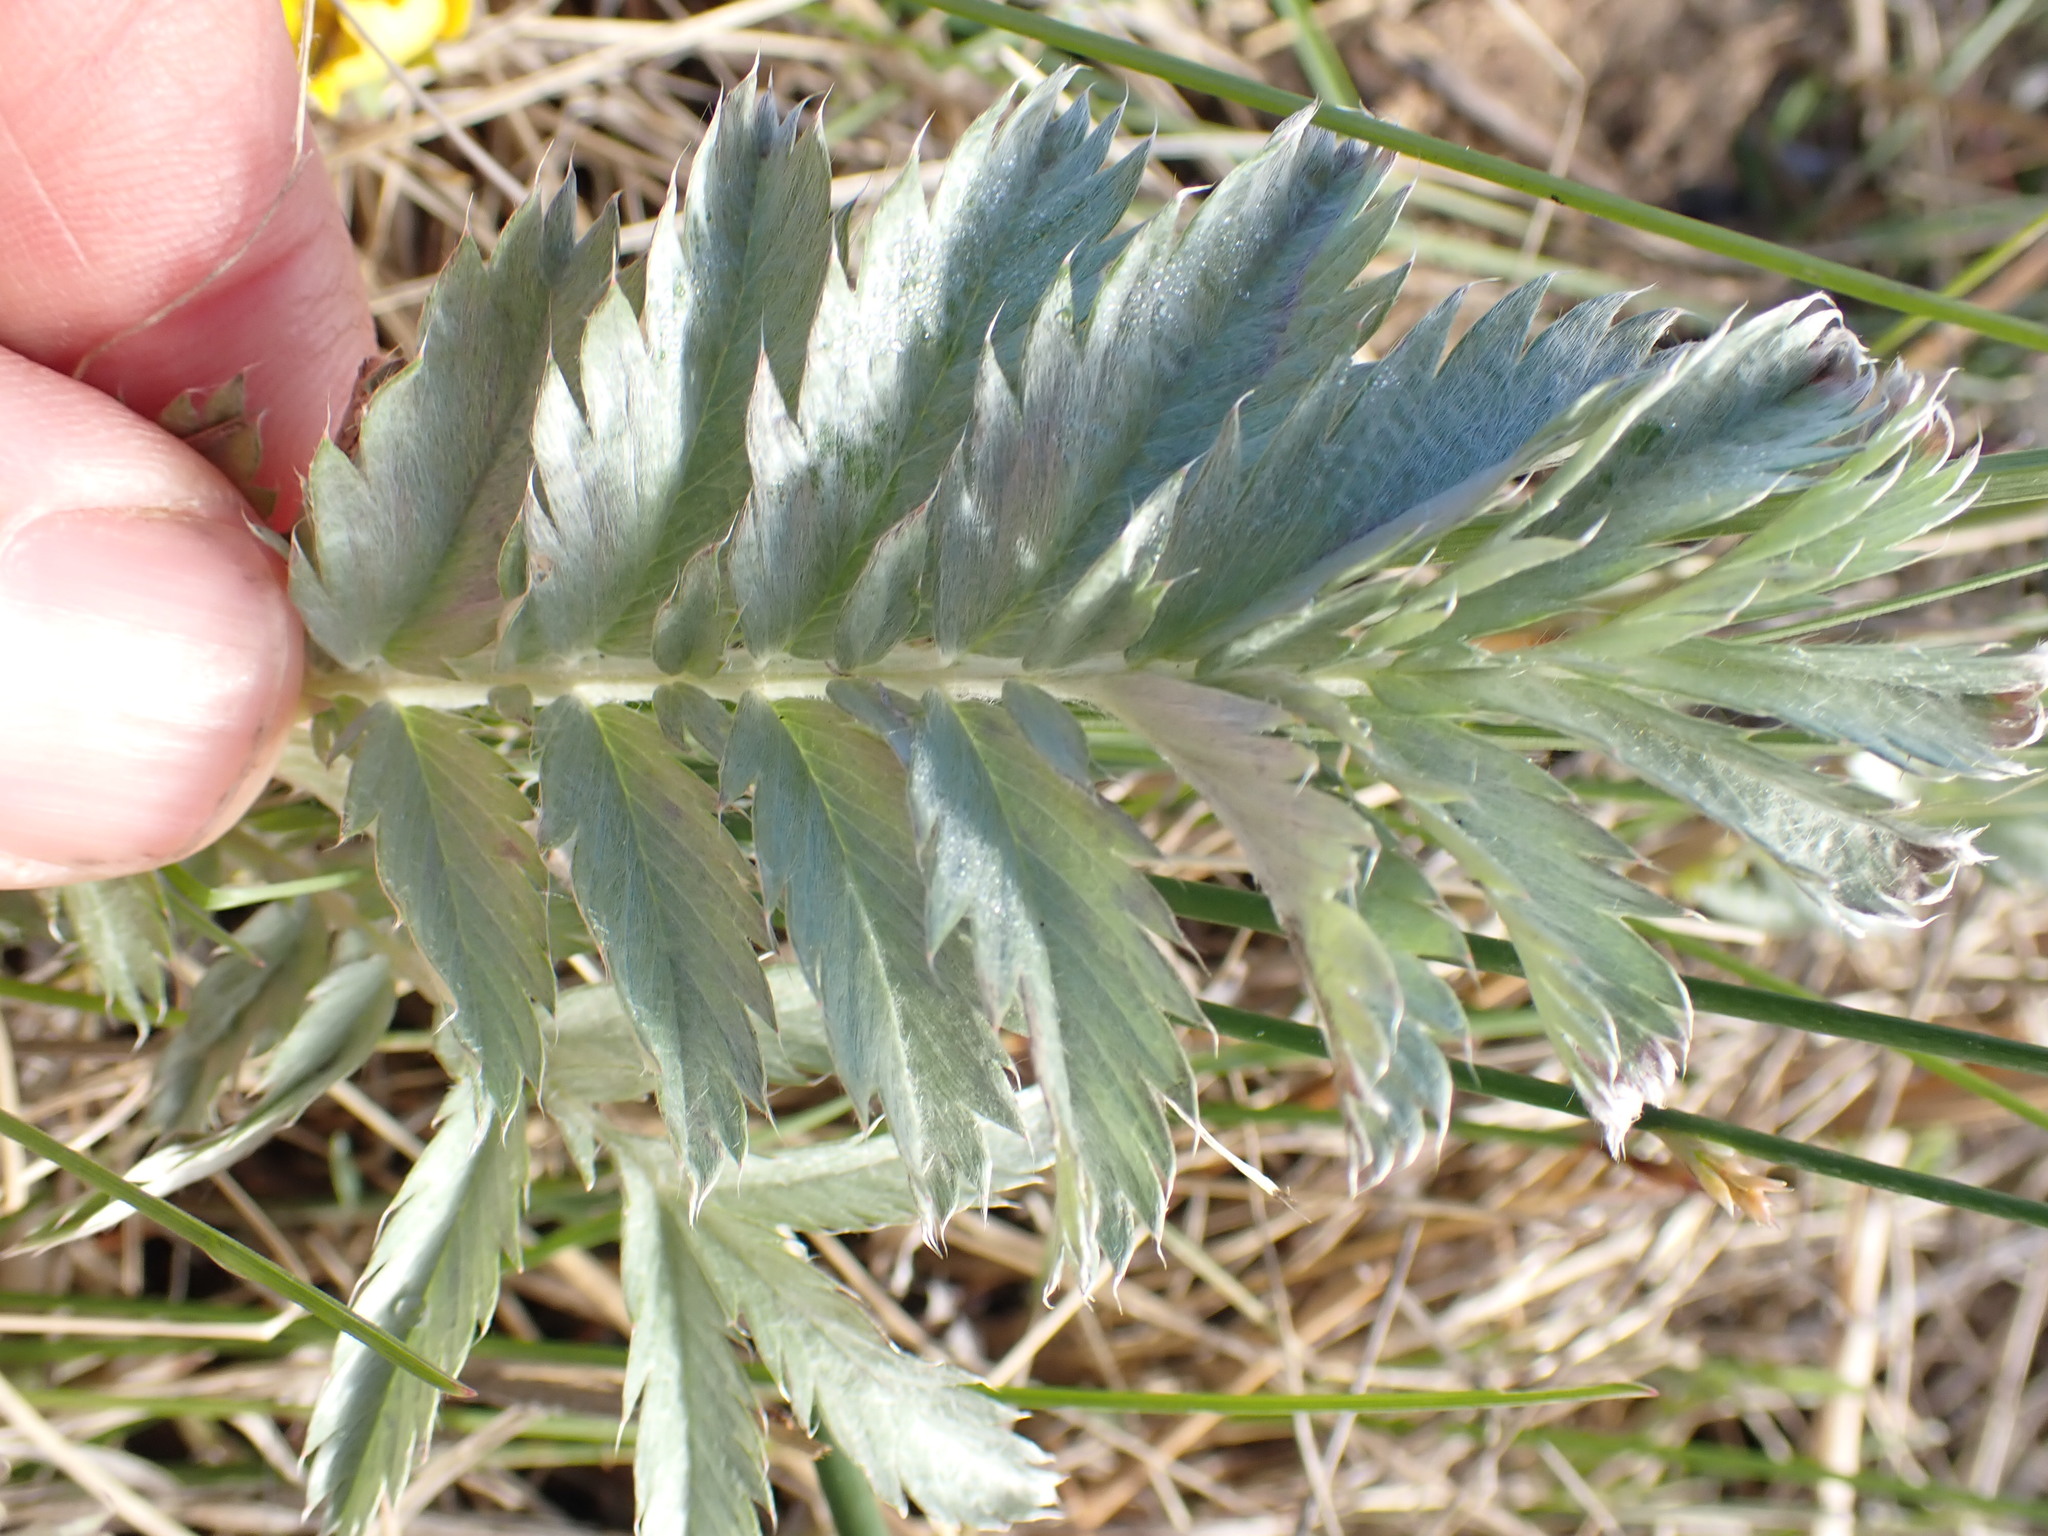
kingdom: Plantae
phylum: Tracheophyta
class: Magnoliopsida
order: Rosales
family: Rosaceae
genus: Argentina
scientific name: Argentina anserina
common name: Common silverweed
